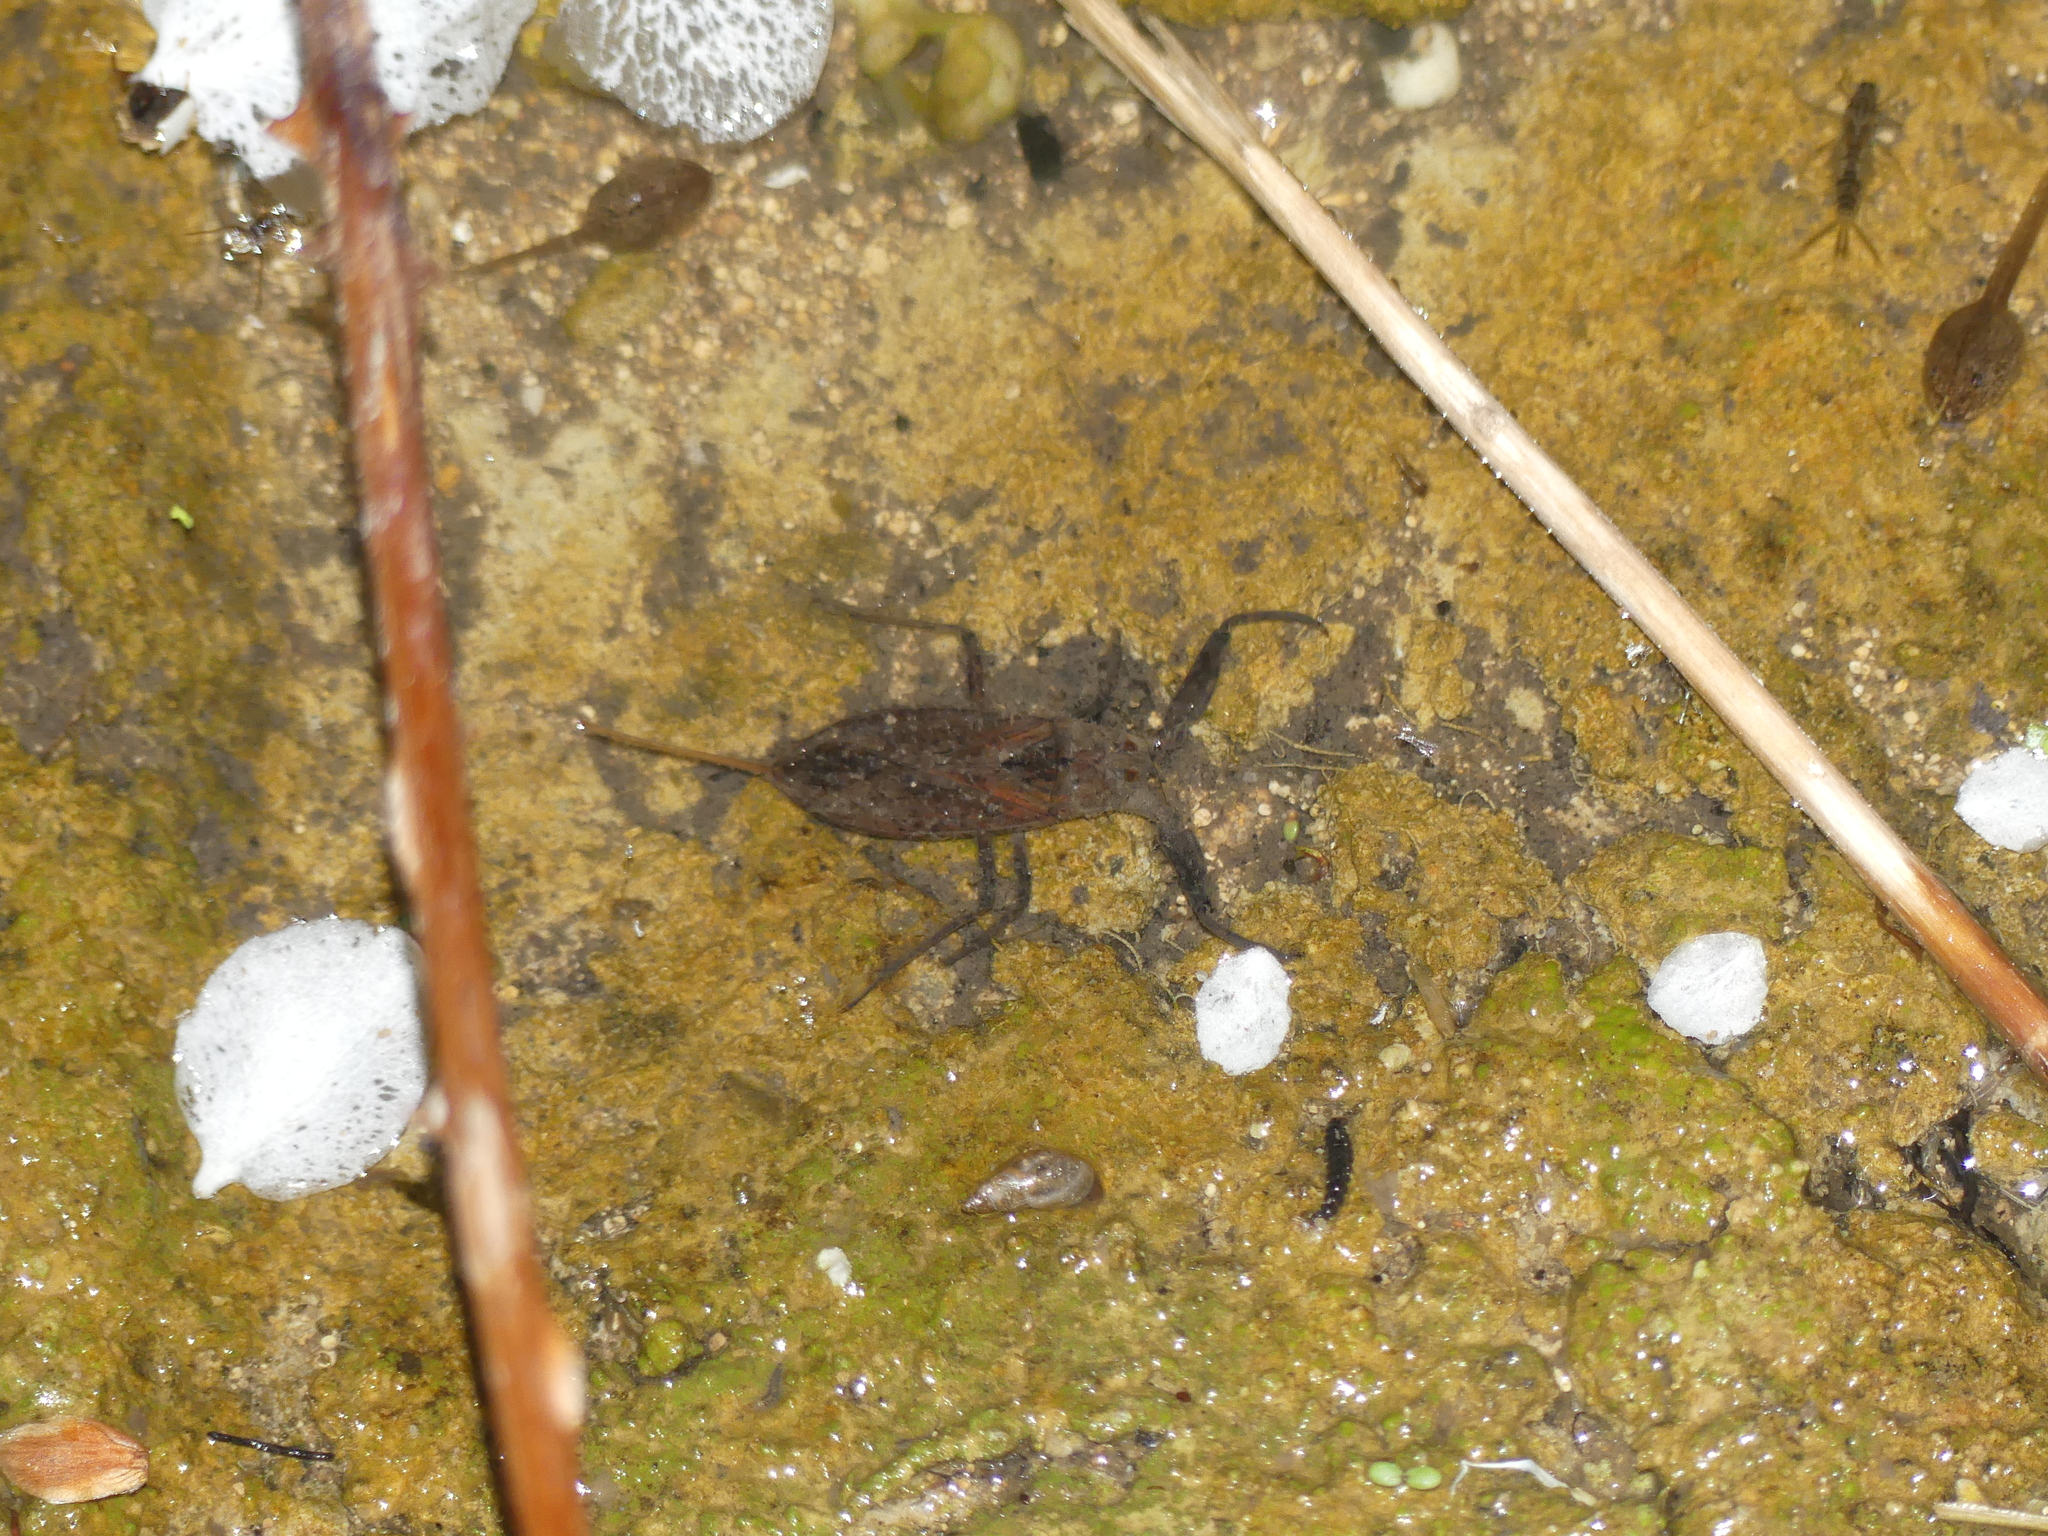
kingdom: Animalia
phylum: Arthropoda
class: Insecta
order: Hemiptera
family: Nepidae
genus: Nepa
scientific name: Nepa cinerea
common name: Water scorpion
